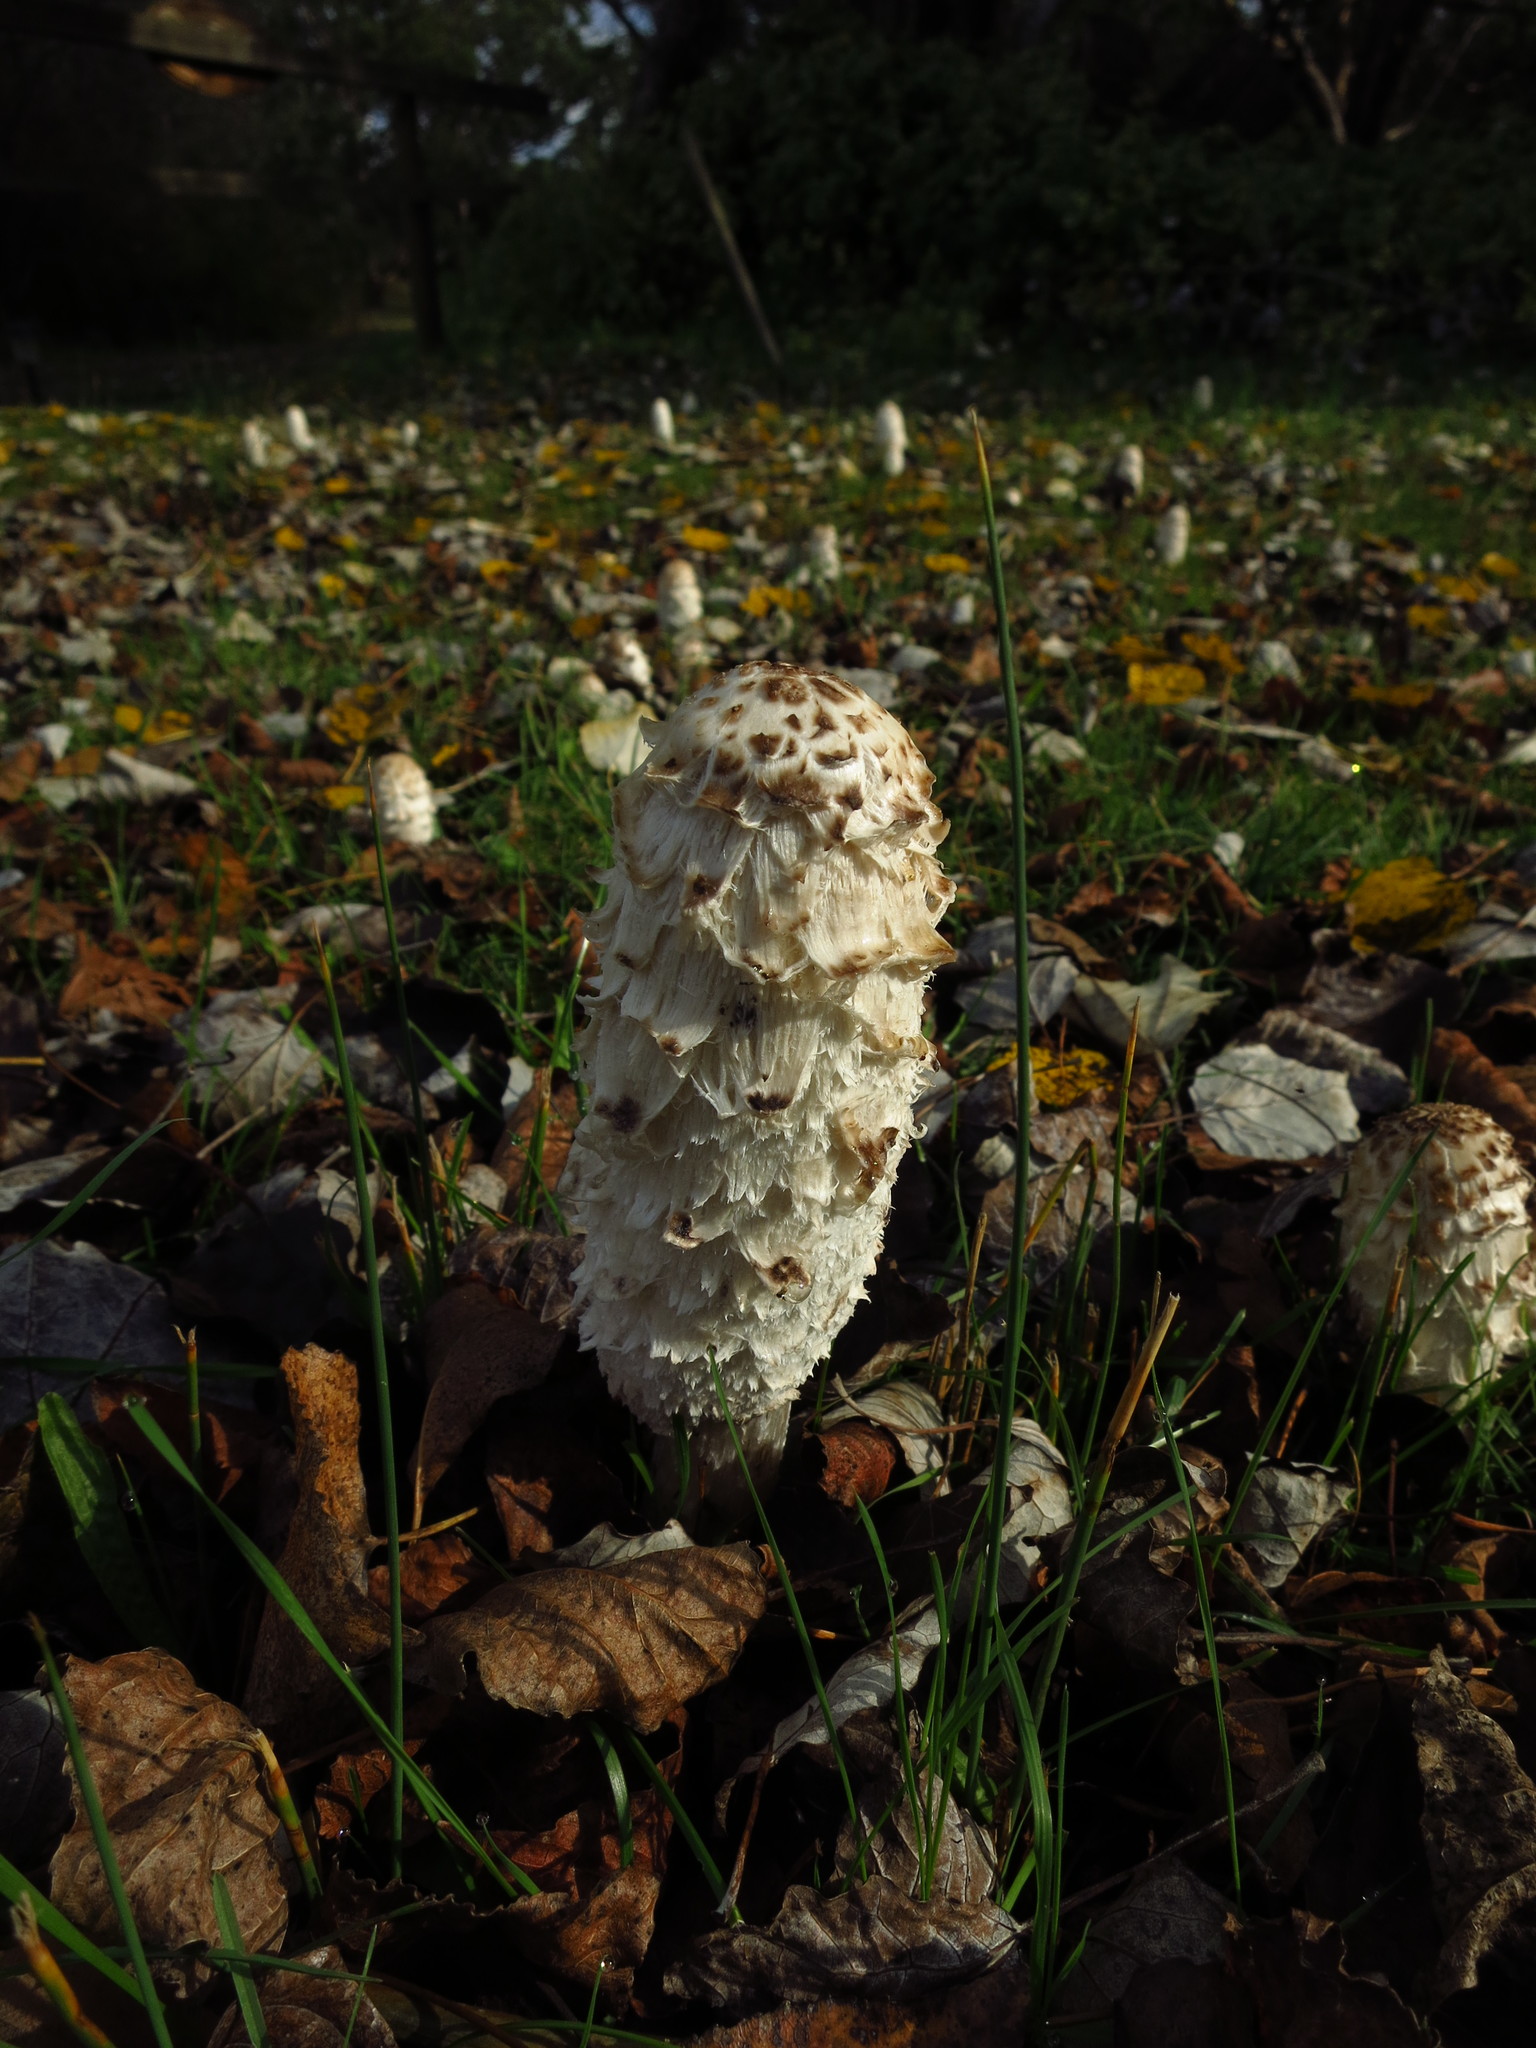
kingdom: Fungi
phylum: Basidiomycota
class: Agaricomycetes
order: Agaricales
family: Agaricaceae
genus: Coprinus
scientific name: Coprinus comatus
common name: Lawyer's wig
